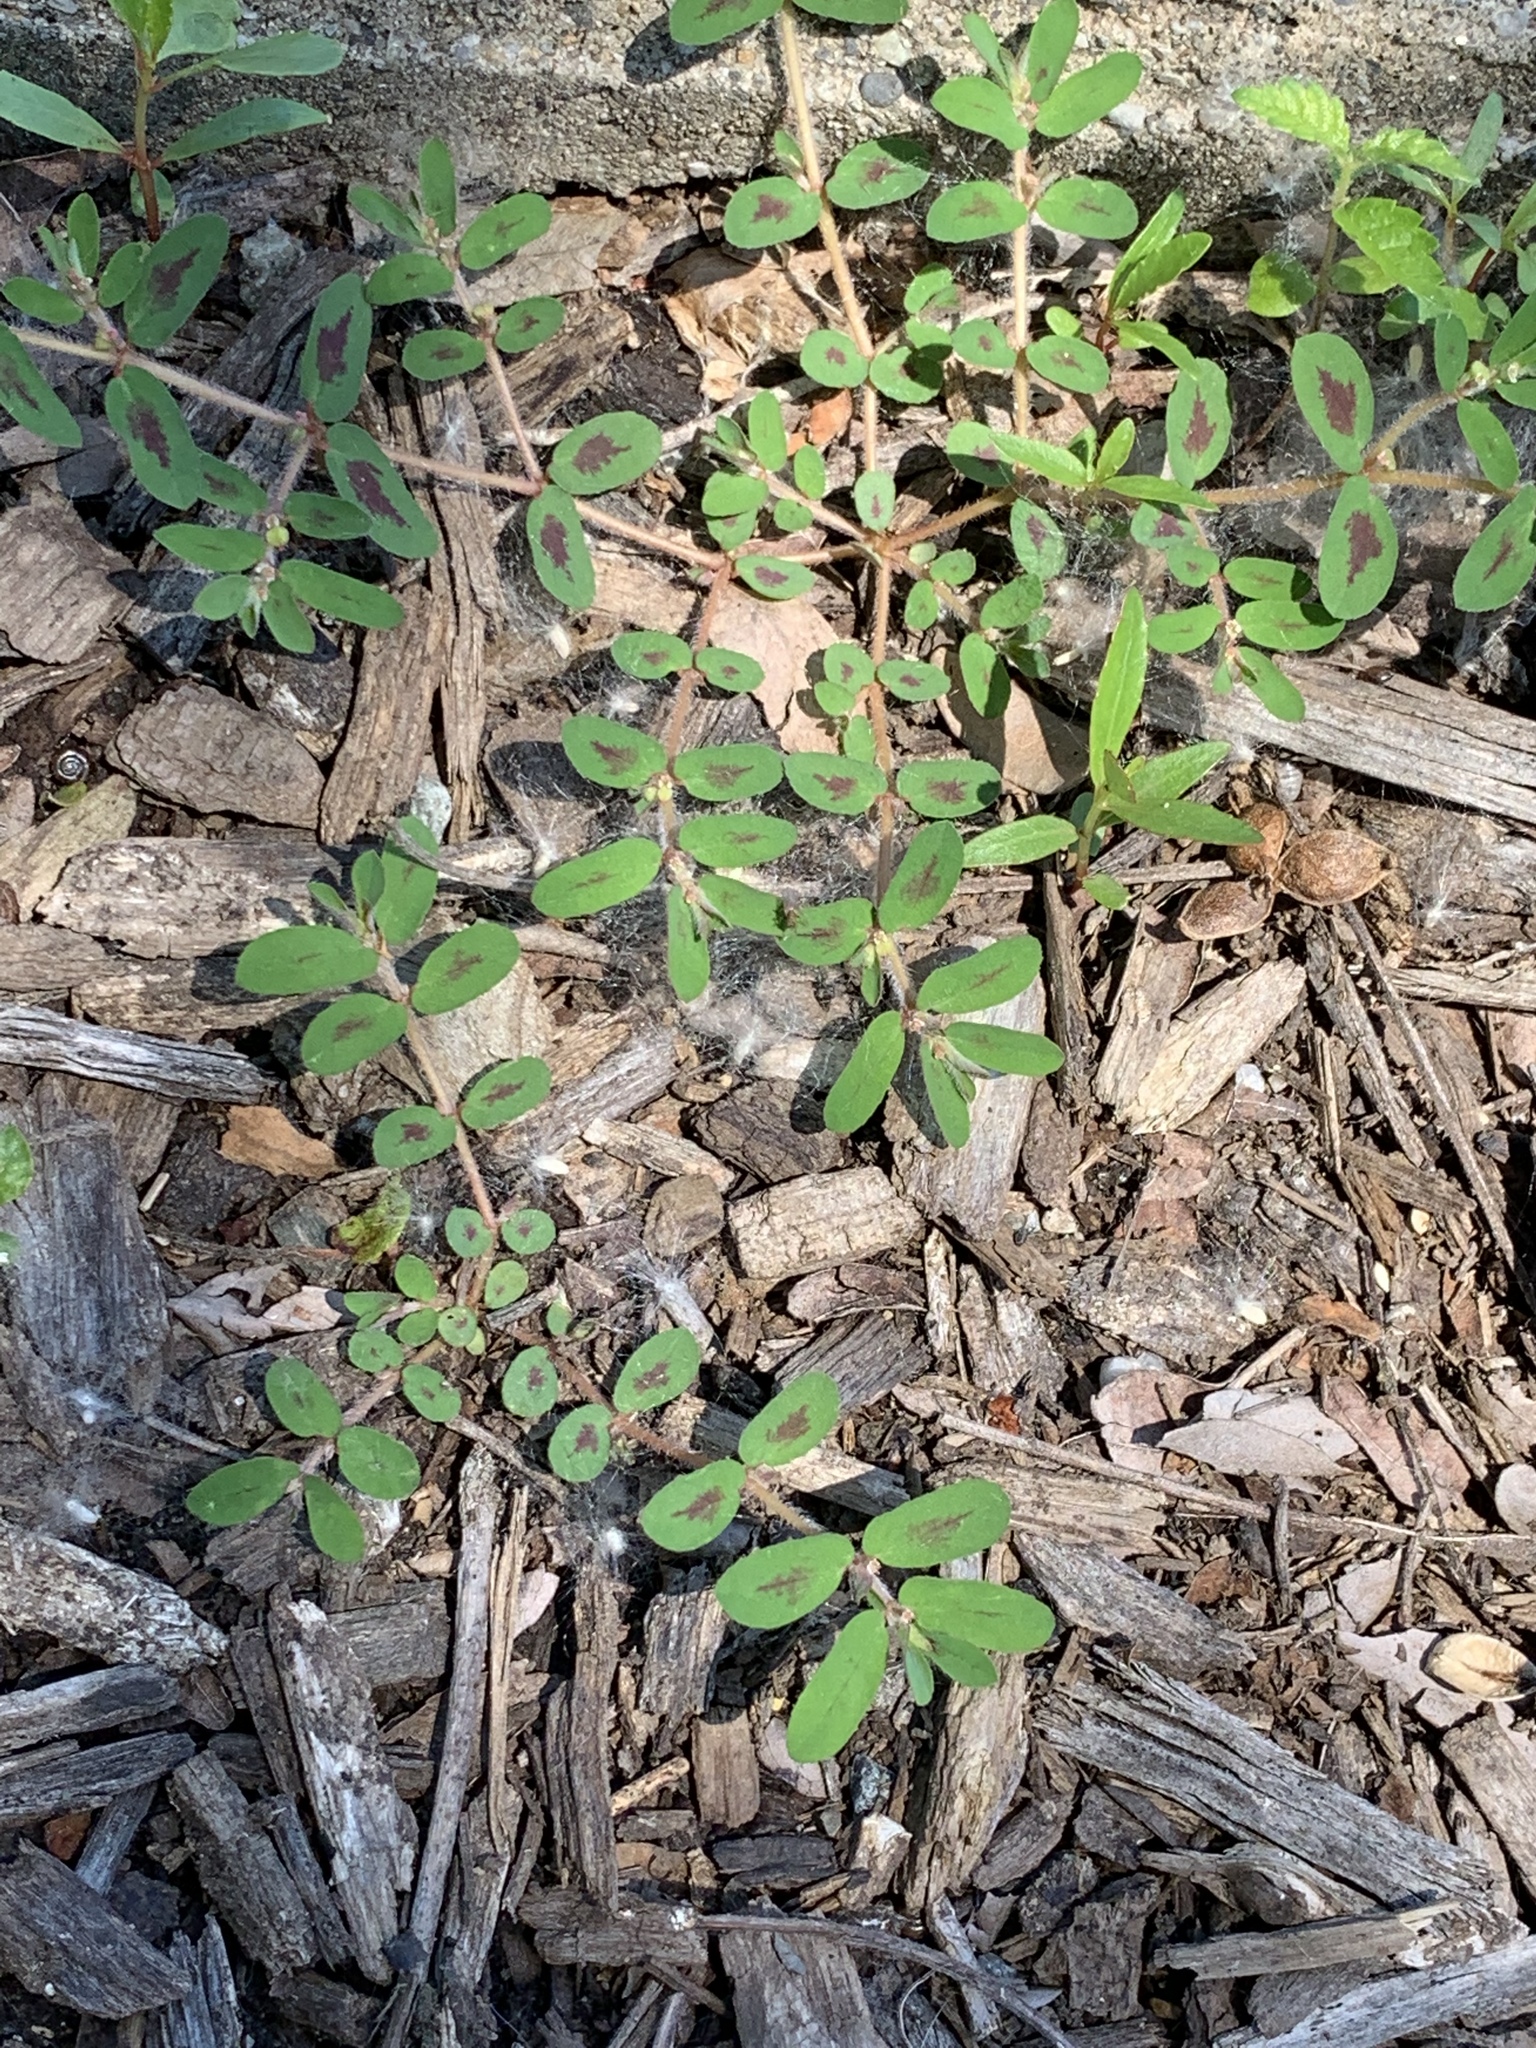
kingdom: Plantae
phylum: Tracheophyta
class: Magnoliopsida
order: Malpighiales
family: Euphorbiaceae
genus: Euphorbia
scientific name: Euphorbia maculata
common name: Spotted spurge
